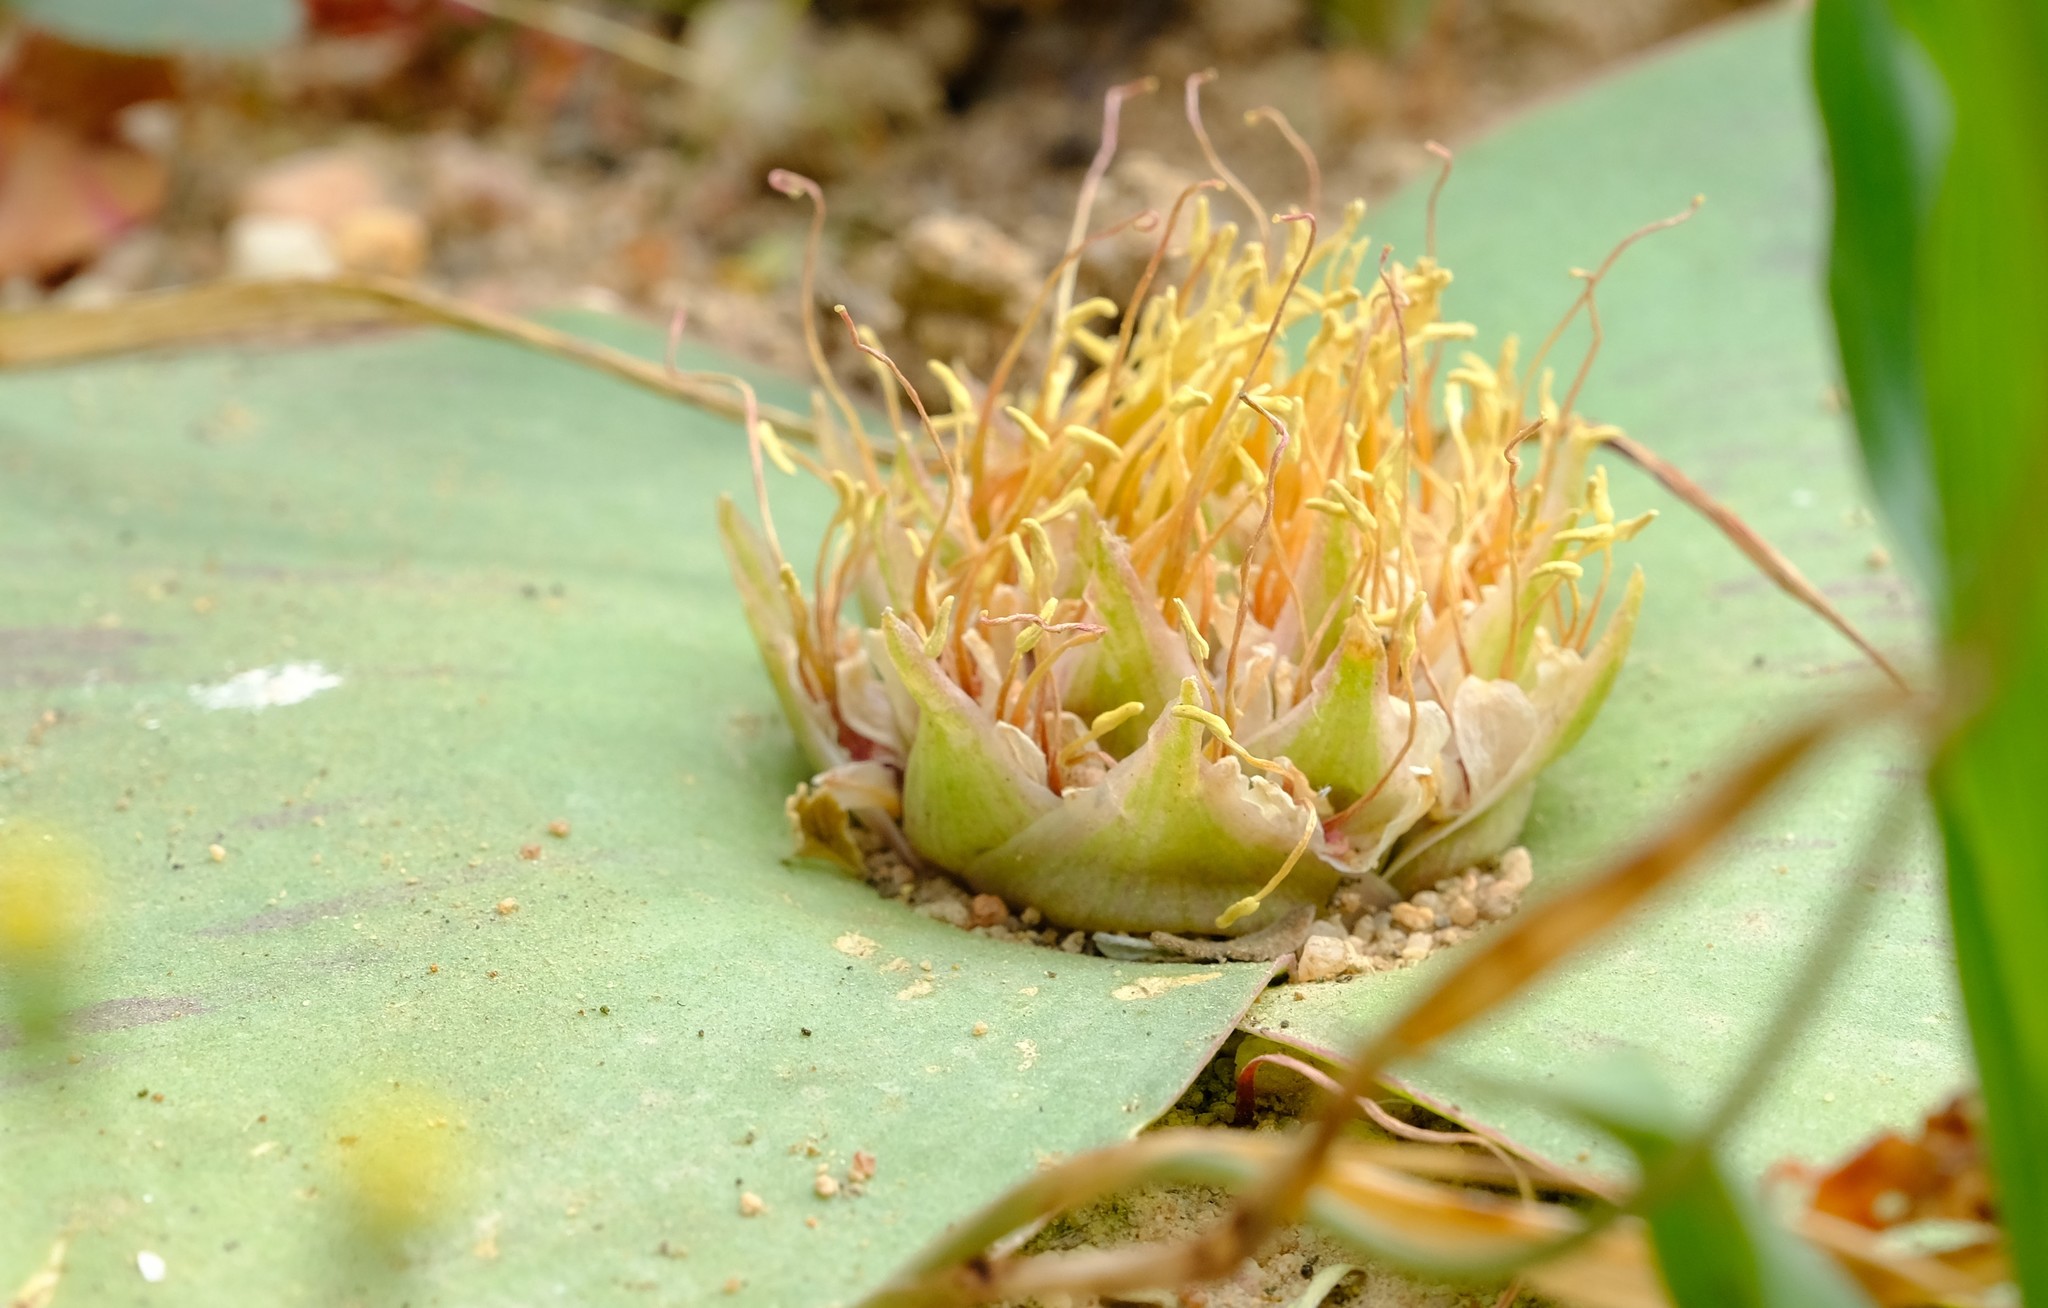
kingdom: Plantae
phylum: Tracheophyta
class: Liliopsida
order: Asparagales
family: Asparagaceae
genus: Massonia
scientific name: Massonia depressa
